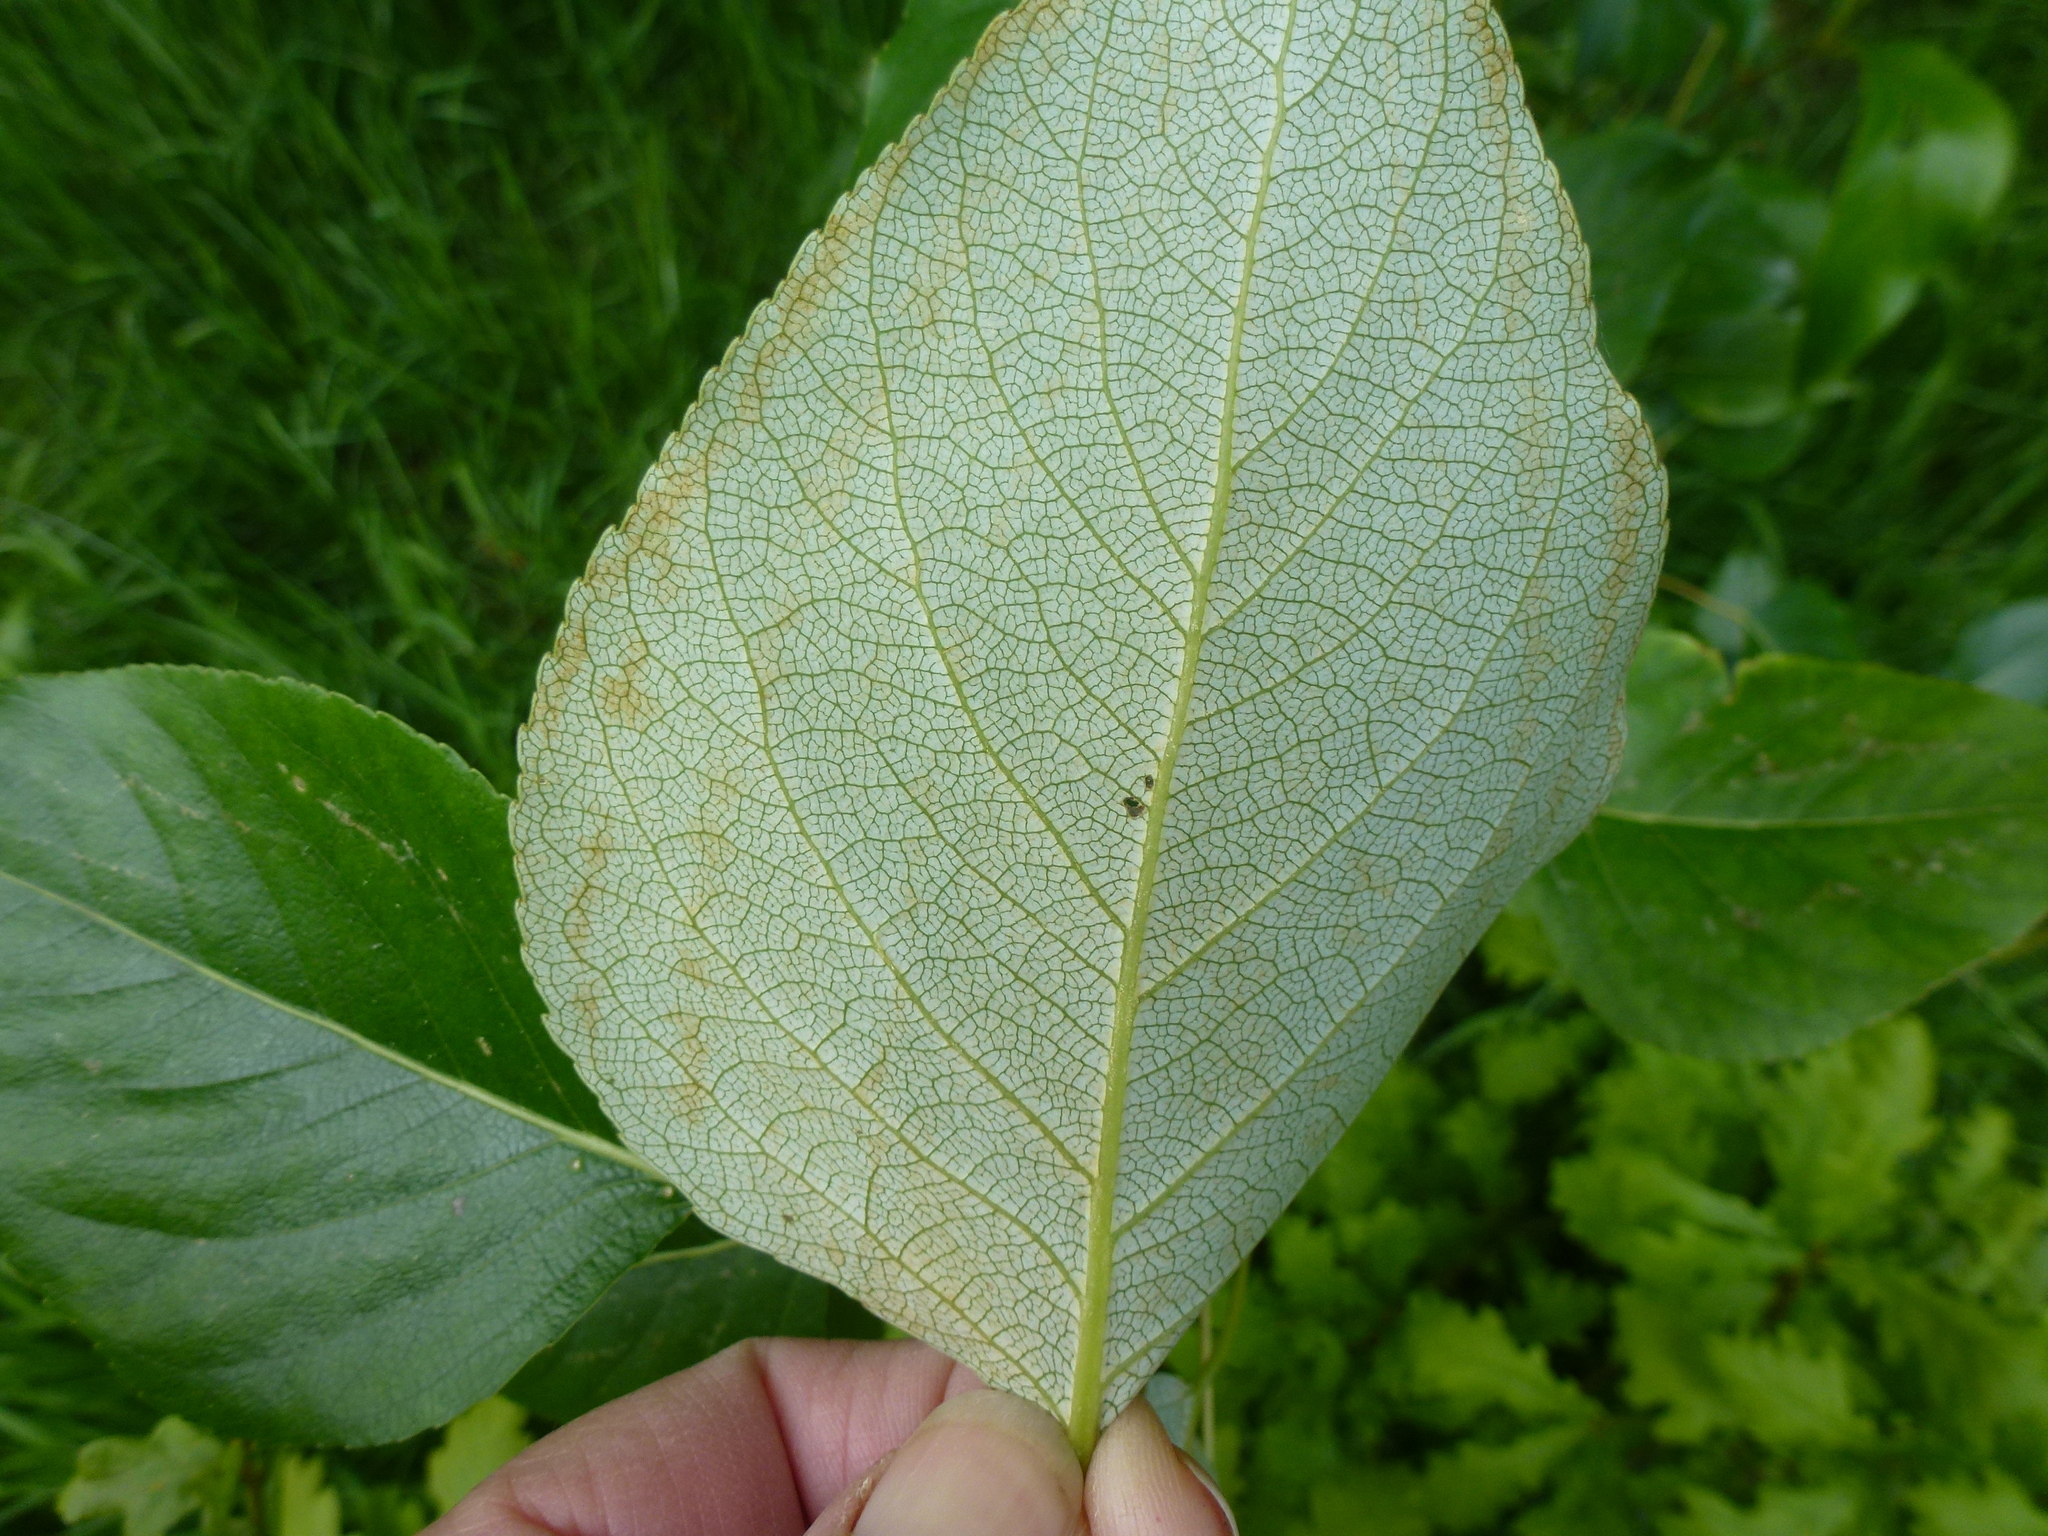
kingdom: Plantae
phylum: Tracheophyta
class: Magnoliopsida
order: Malpighiales
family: Salicaceae
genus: Populus
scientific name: Populus trichocarpa
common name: Black cottonwood
